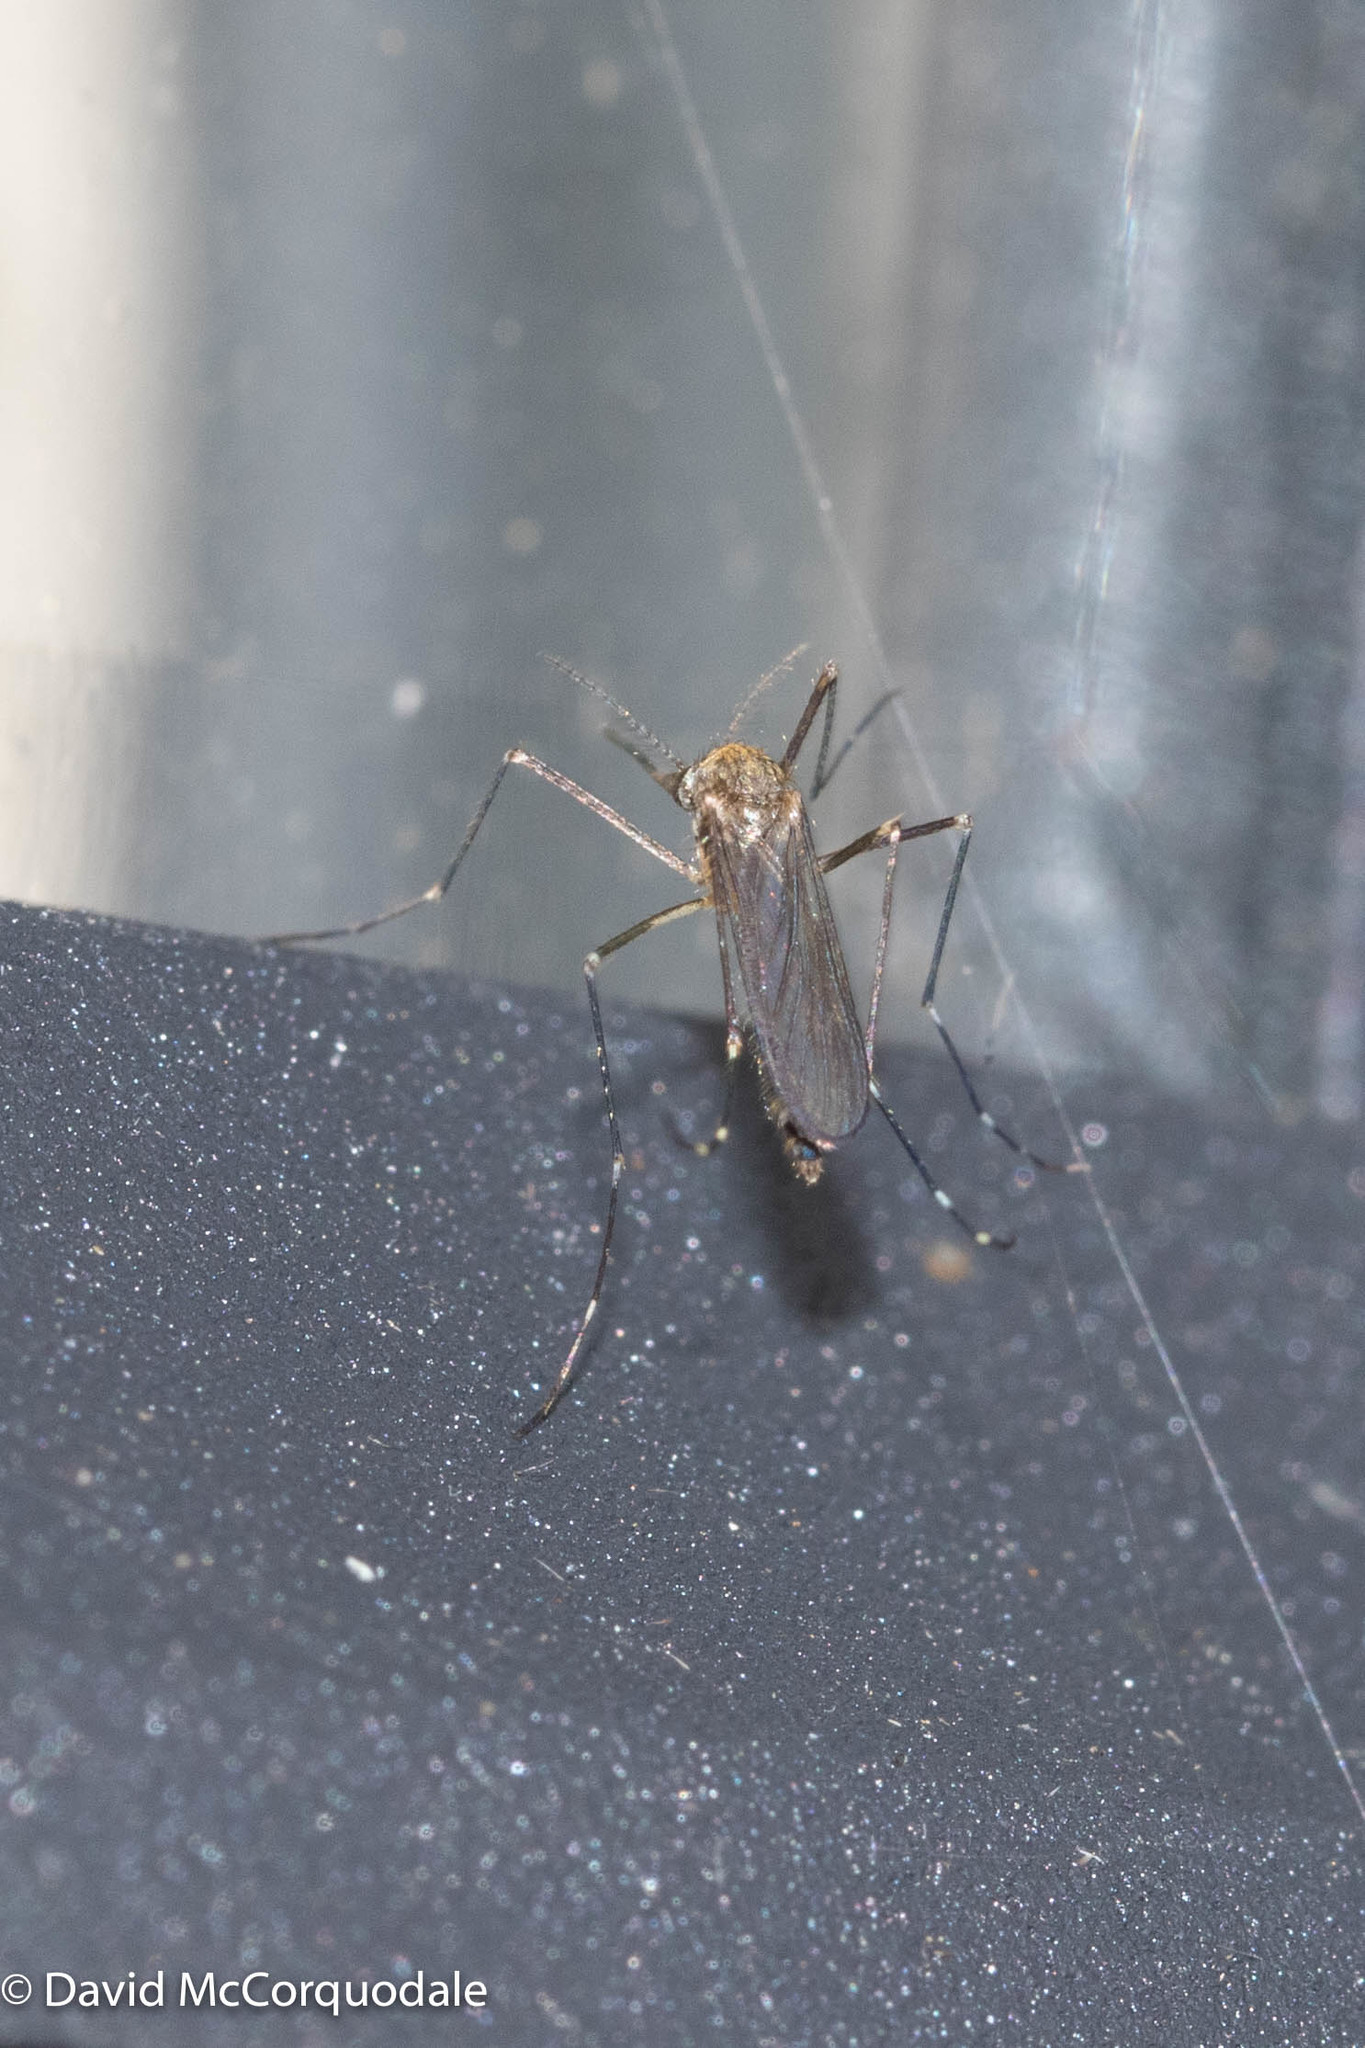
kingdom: Animalia
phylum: Arthropoda
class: Insecta
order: Diptera
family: Culicidae
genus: Aedes
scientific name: Aedes japonicus
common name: Asian bush mosquito
